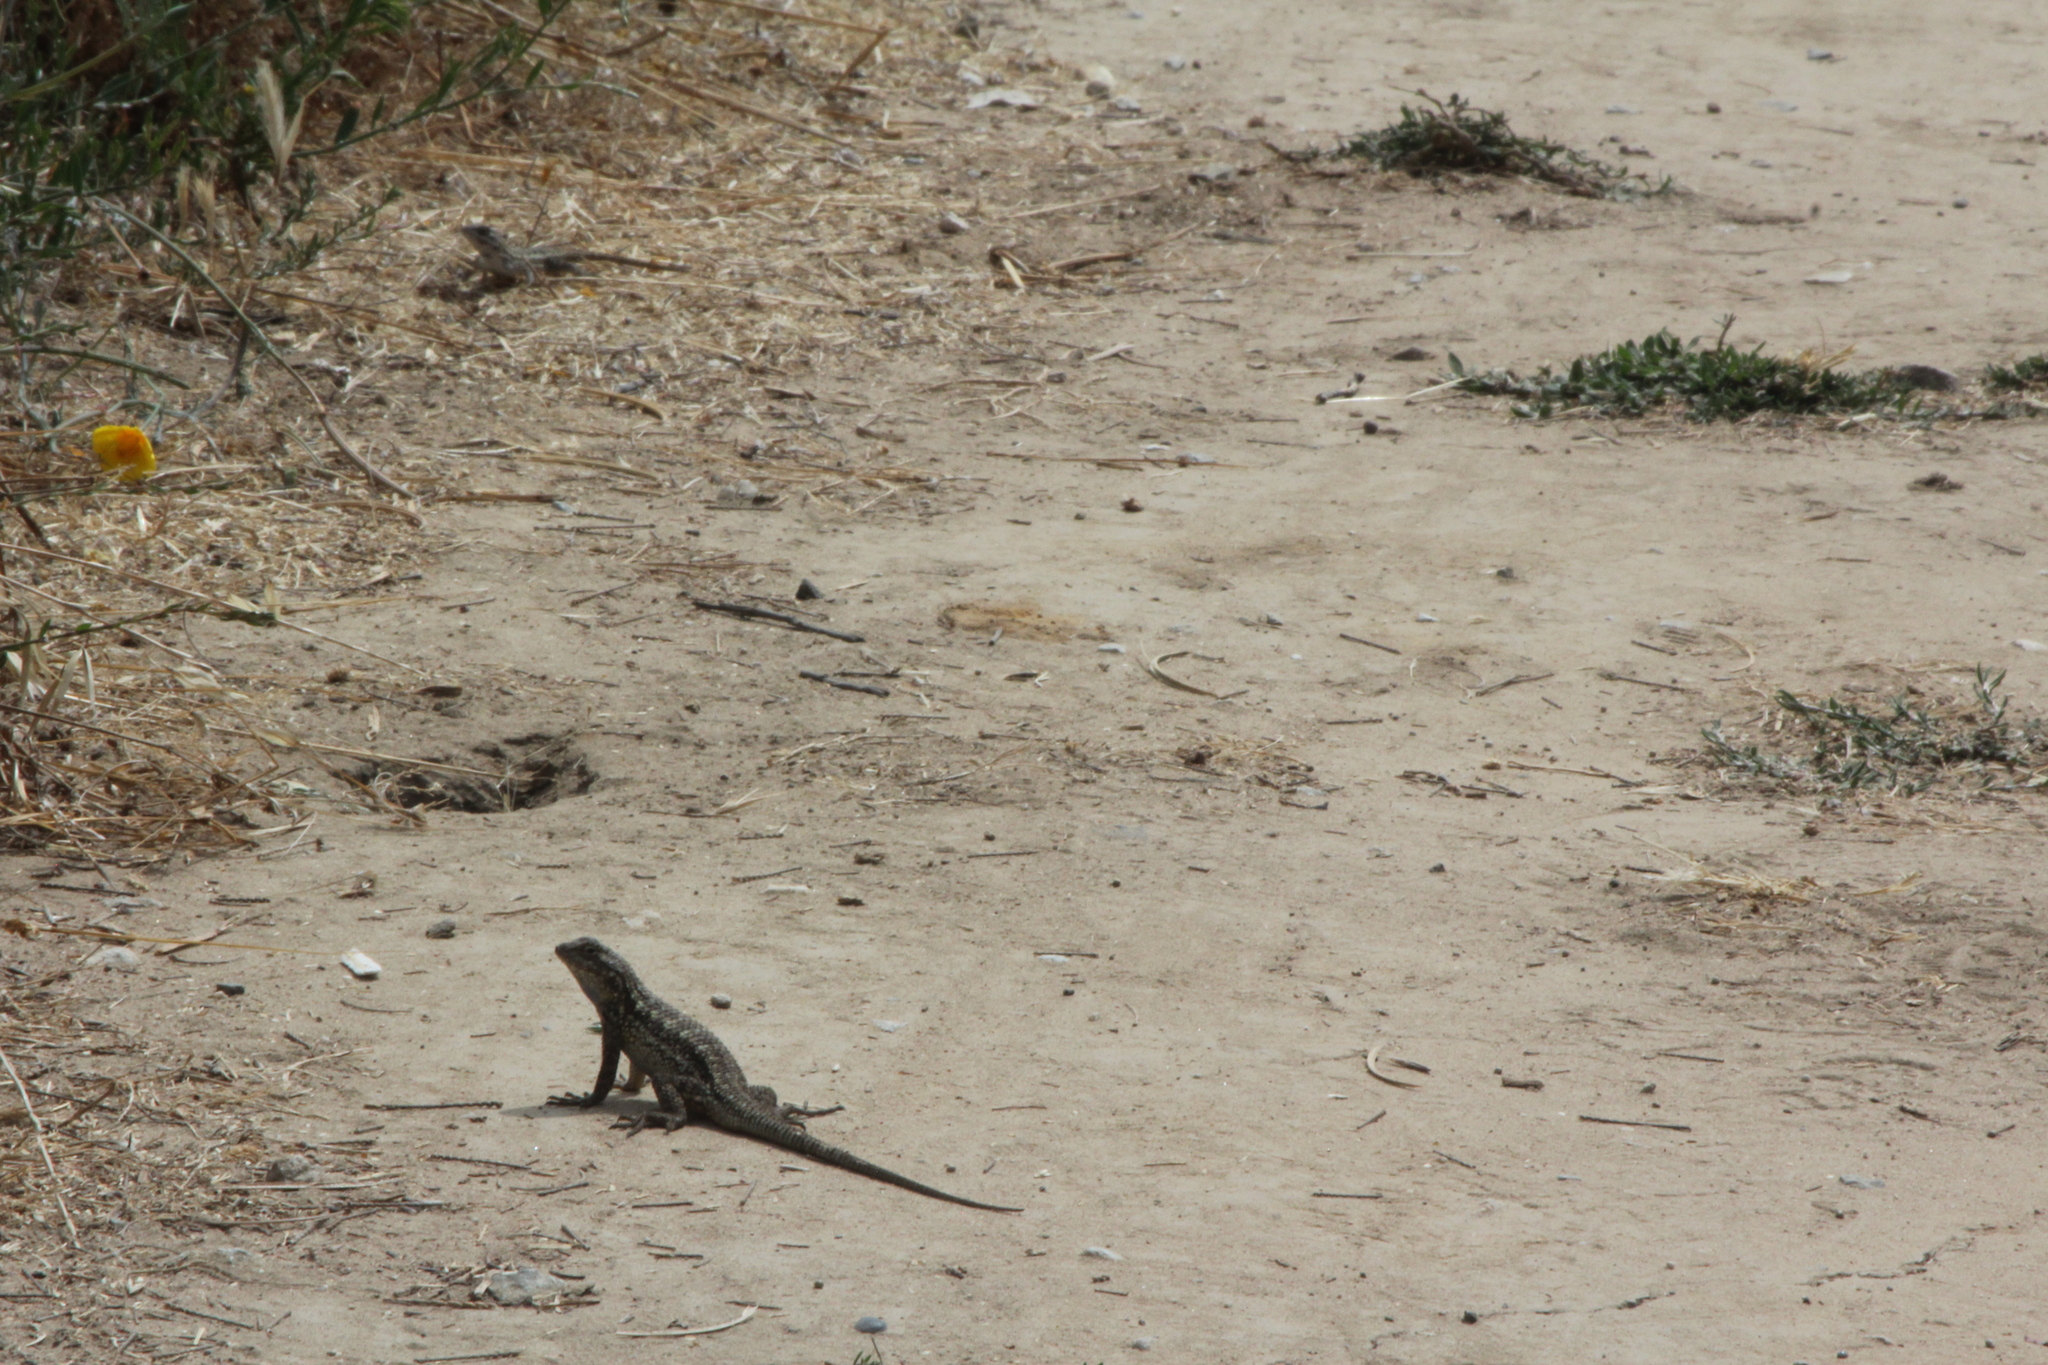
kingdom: Animalia
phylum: Chordata
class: Squamata
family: Phrynosomatidae
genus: Sceloporus
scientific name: Sceloporus occidentalis
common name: Western fence lizard
